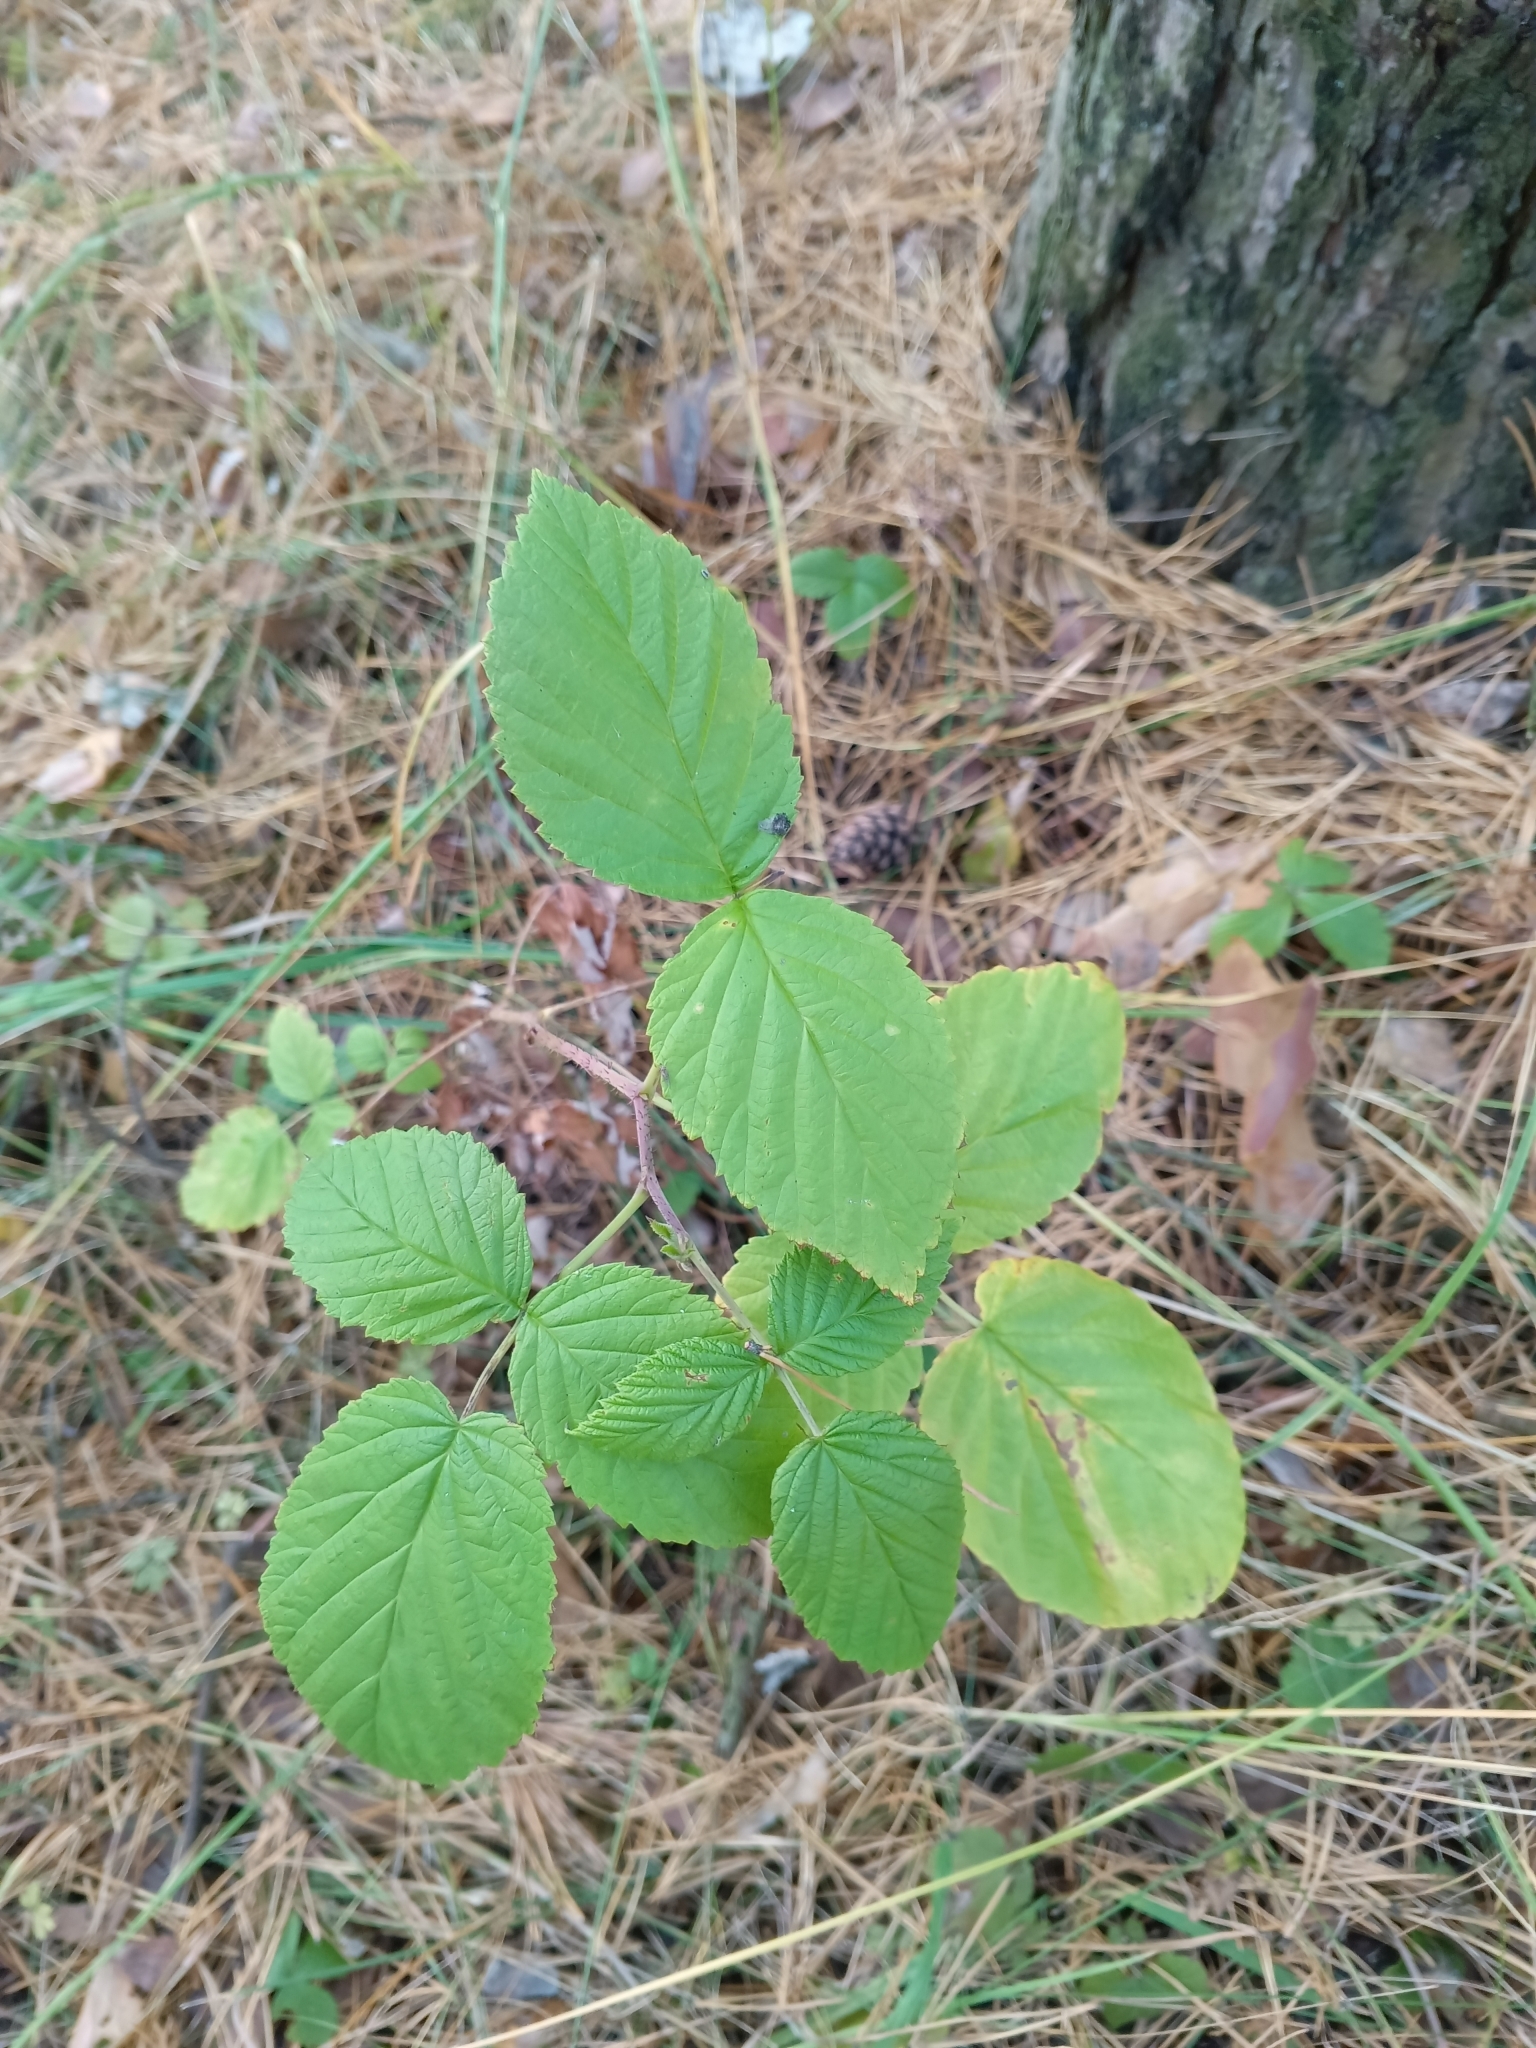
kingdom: Plantae
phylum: Tracheophyta
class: Magnoliopsida
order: Rosales
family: Rosaceae
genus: Rubus
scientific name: Rubus idaeus
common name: Raspberry
